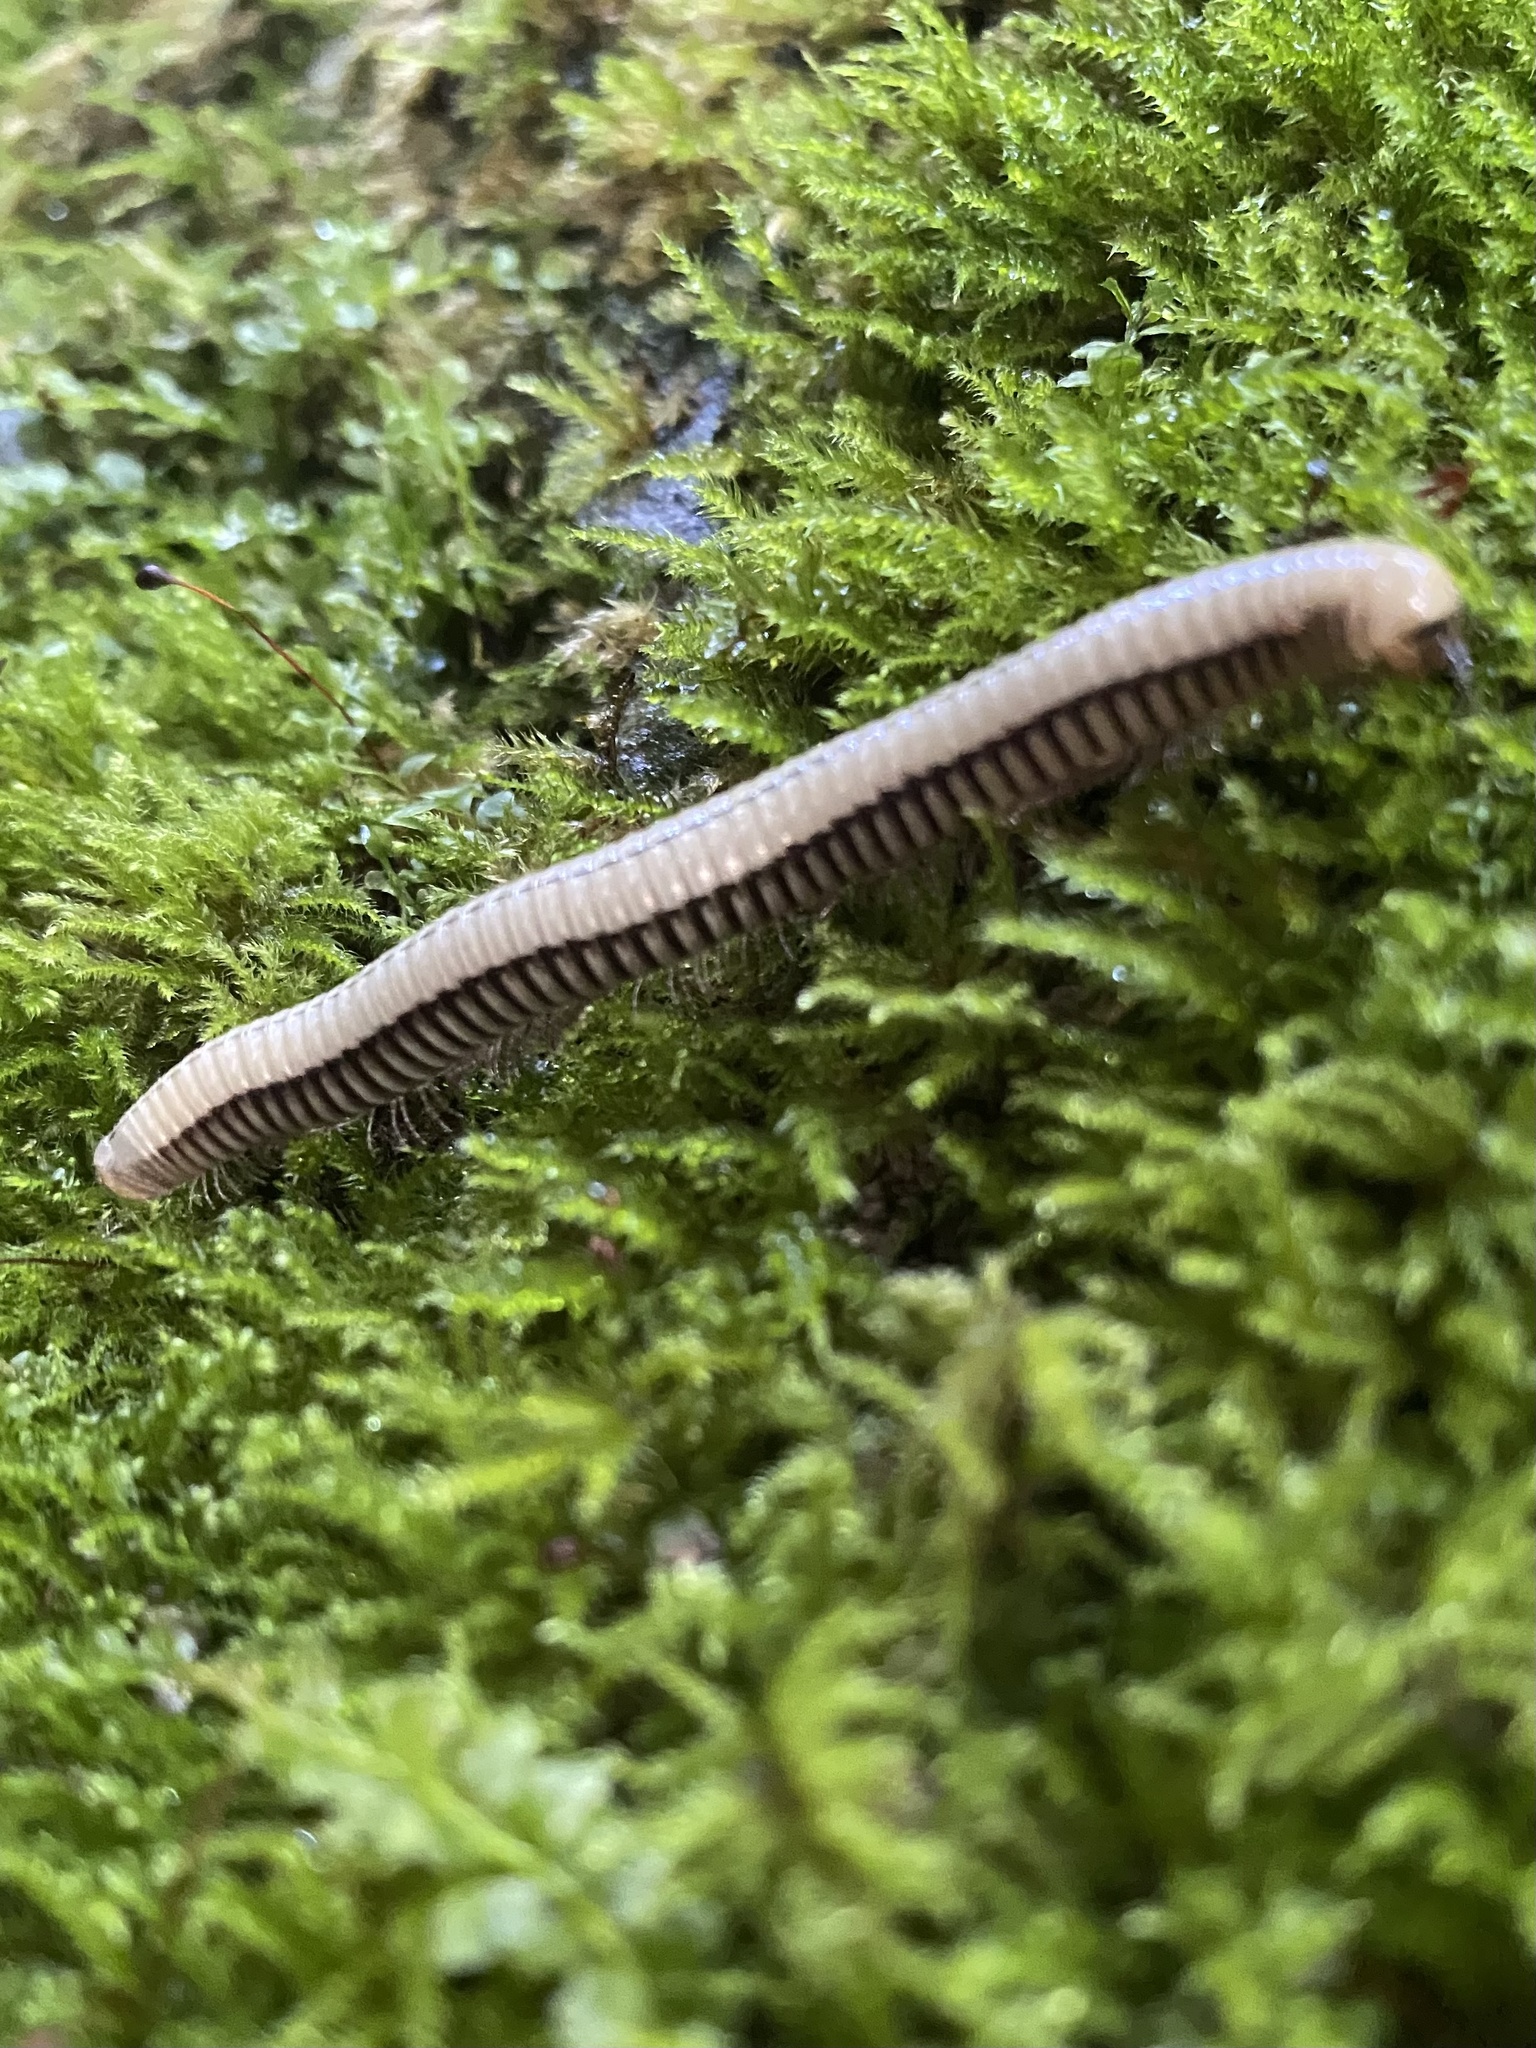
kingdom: Animalia
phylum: Arthropoda
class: Diplopoda
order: Julida
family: Julidae
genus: Pachyiulus
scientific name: Pachyiulus krivolutskyi
